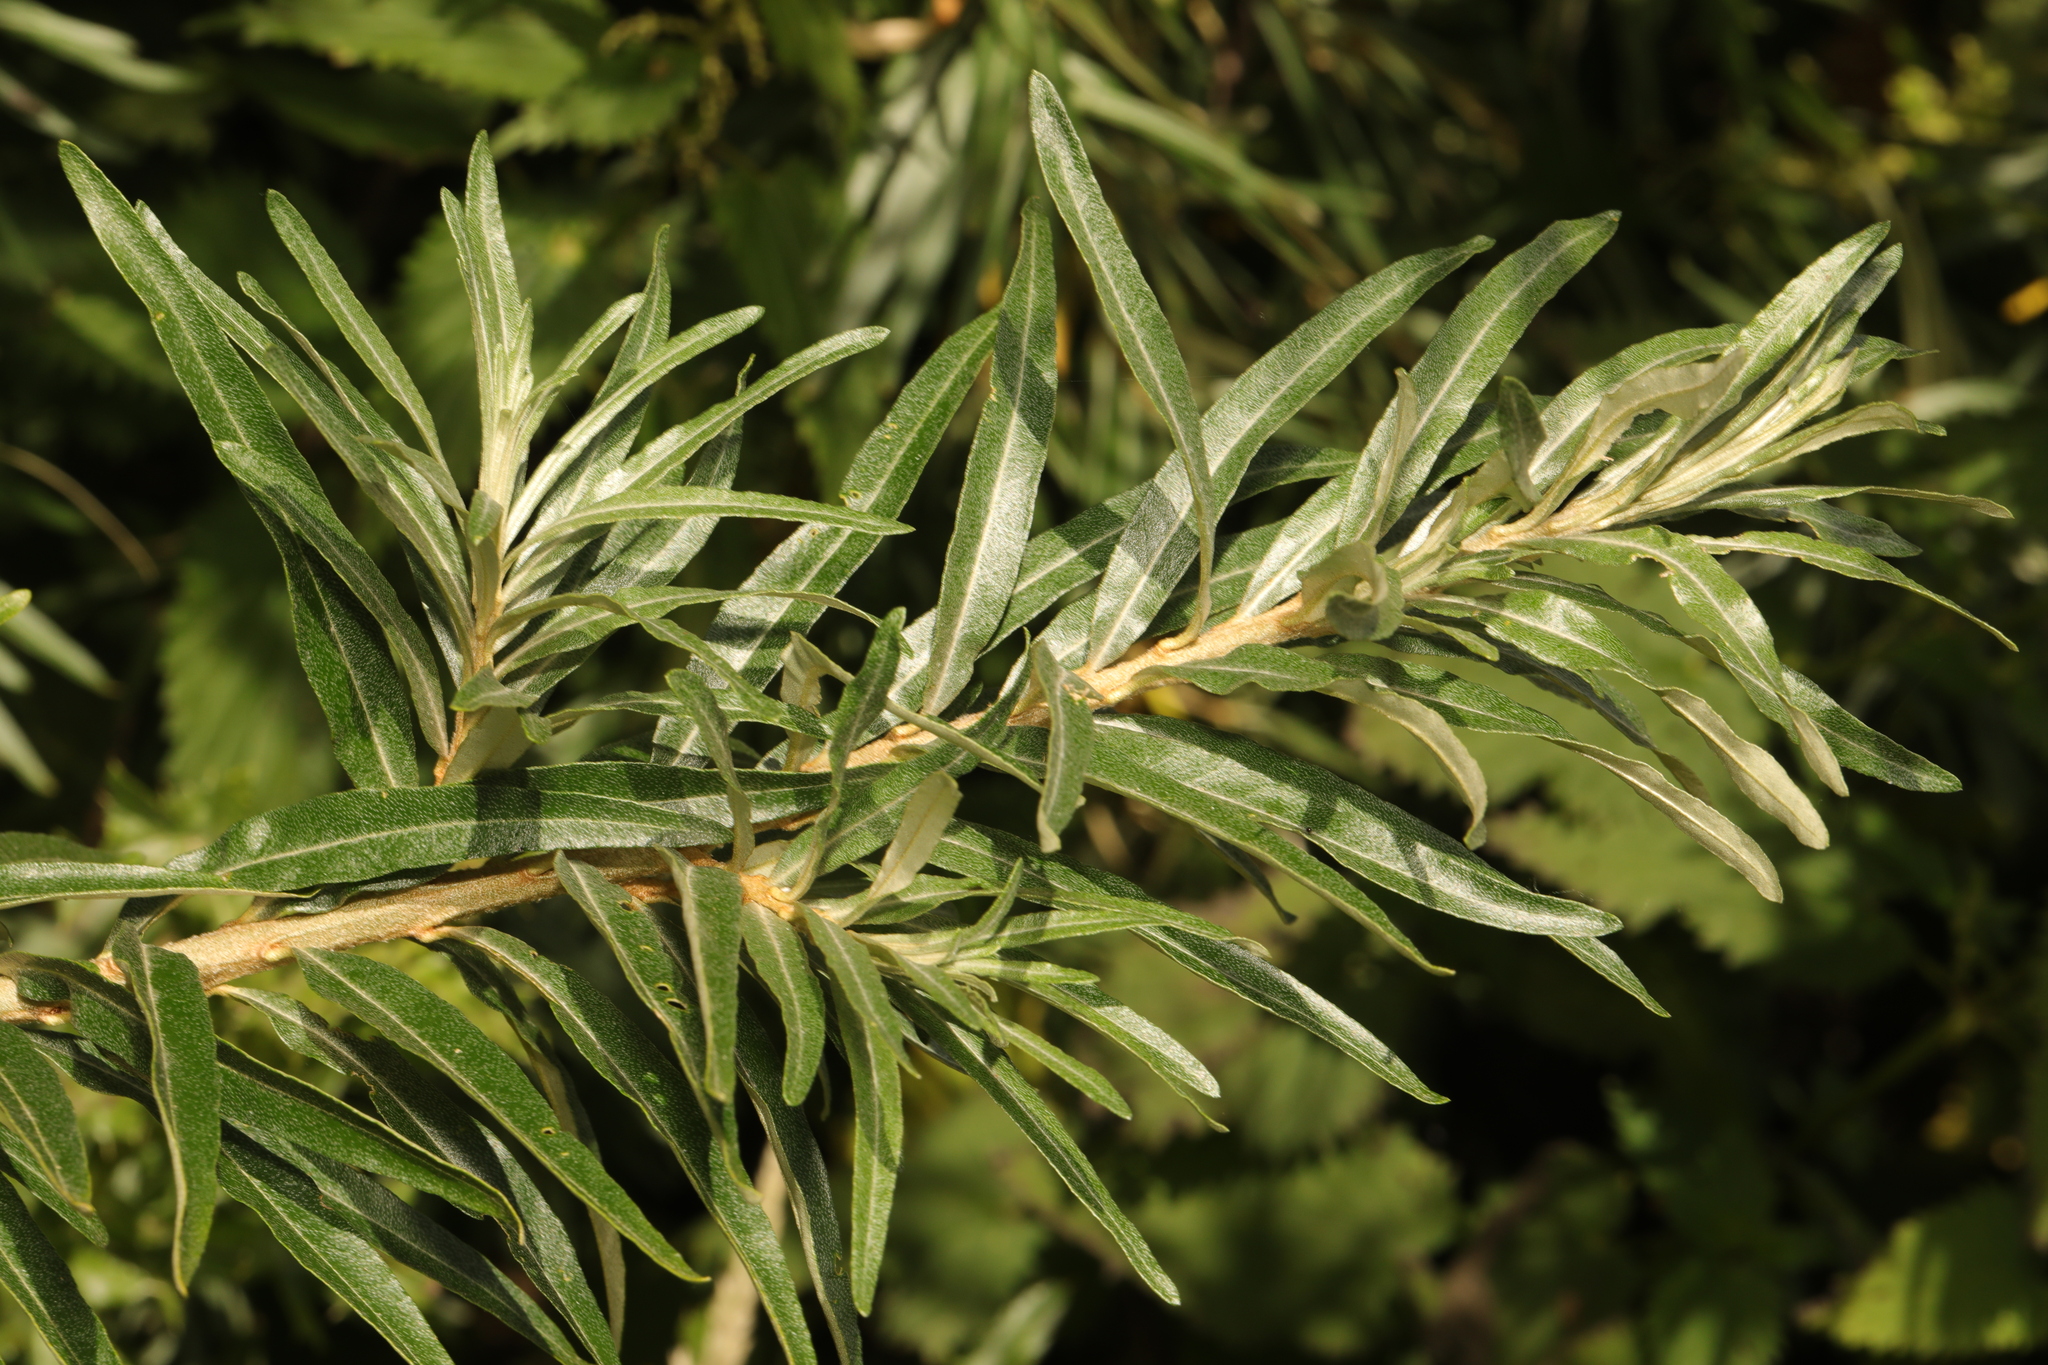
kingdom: Plantae
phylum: Tracheophyta
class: Magnoliopsida
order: Rosales
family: Elaeagnaceae
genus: Hippophae
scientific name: Hippophae rhamnoides
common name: Sea-buckthorn
